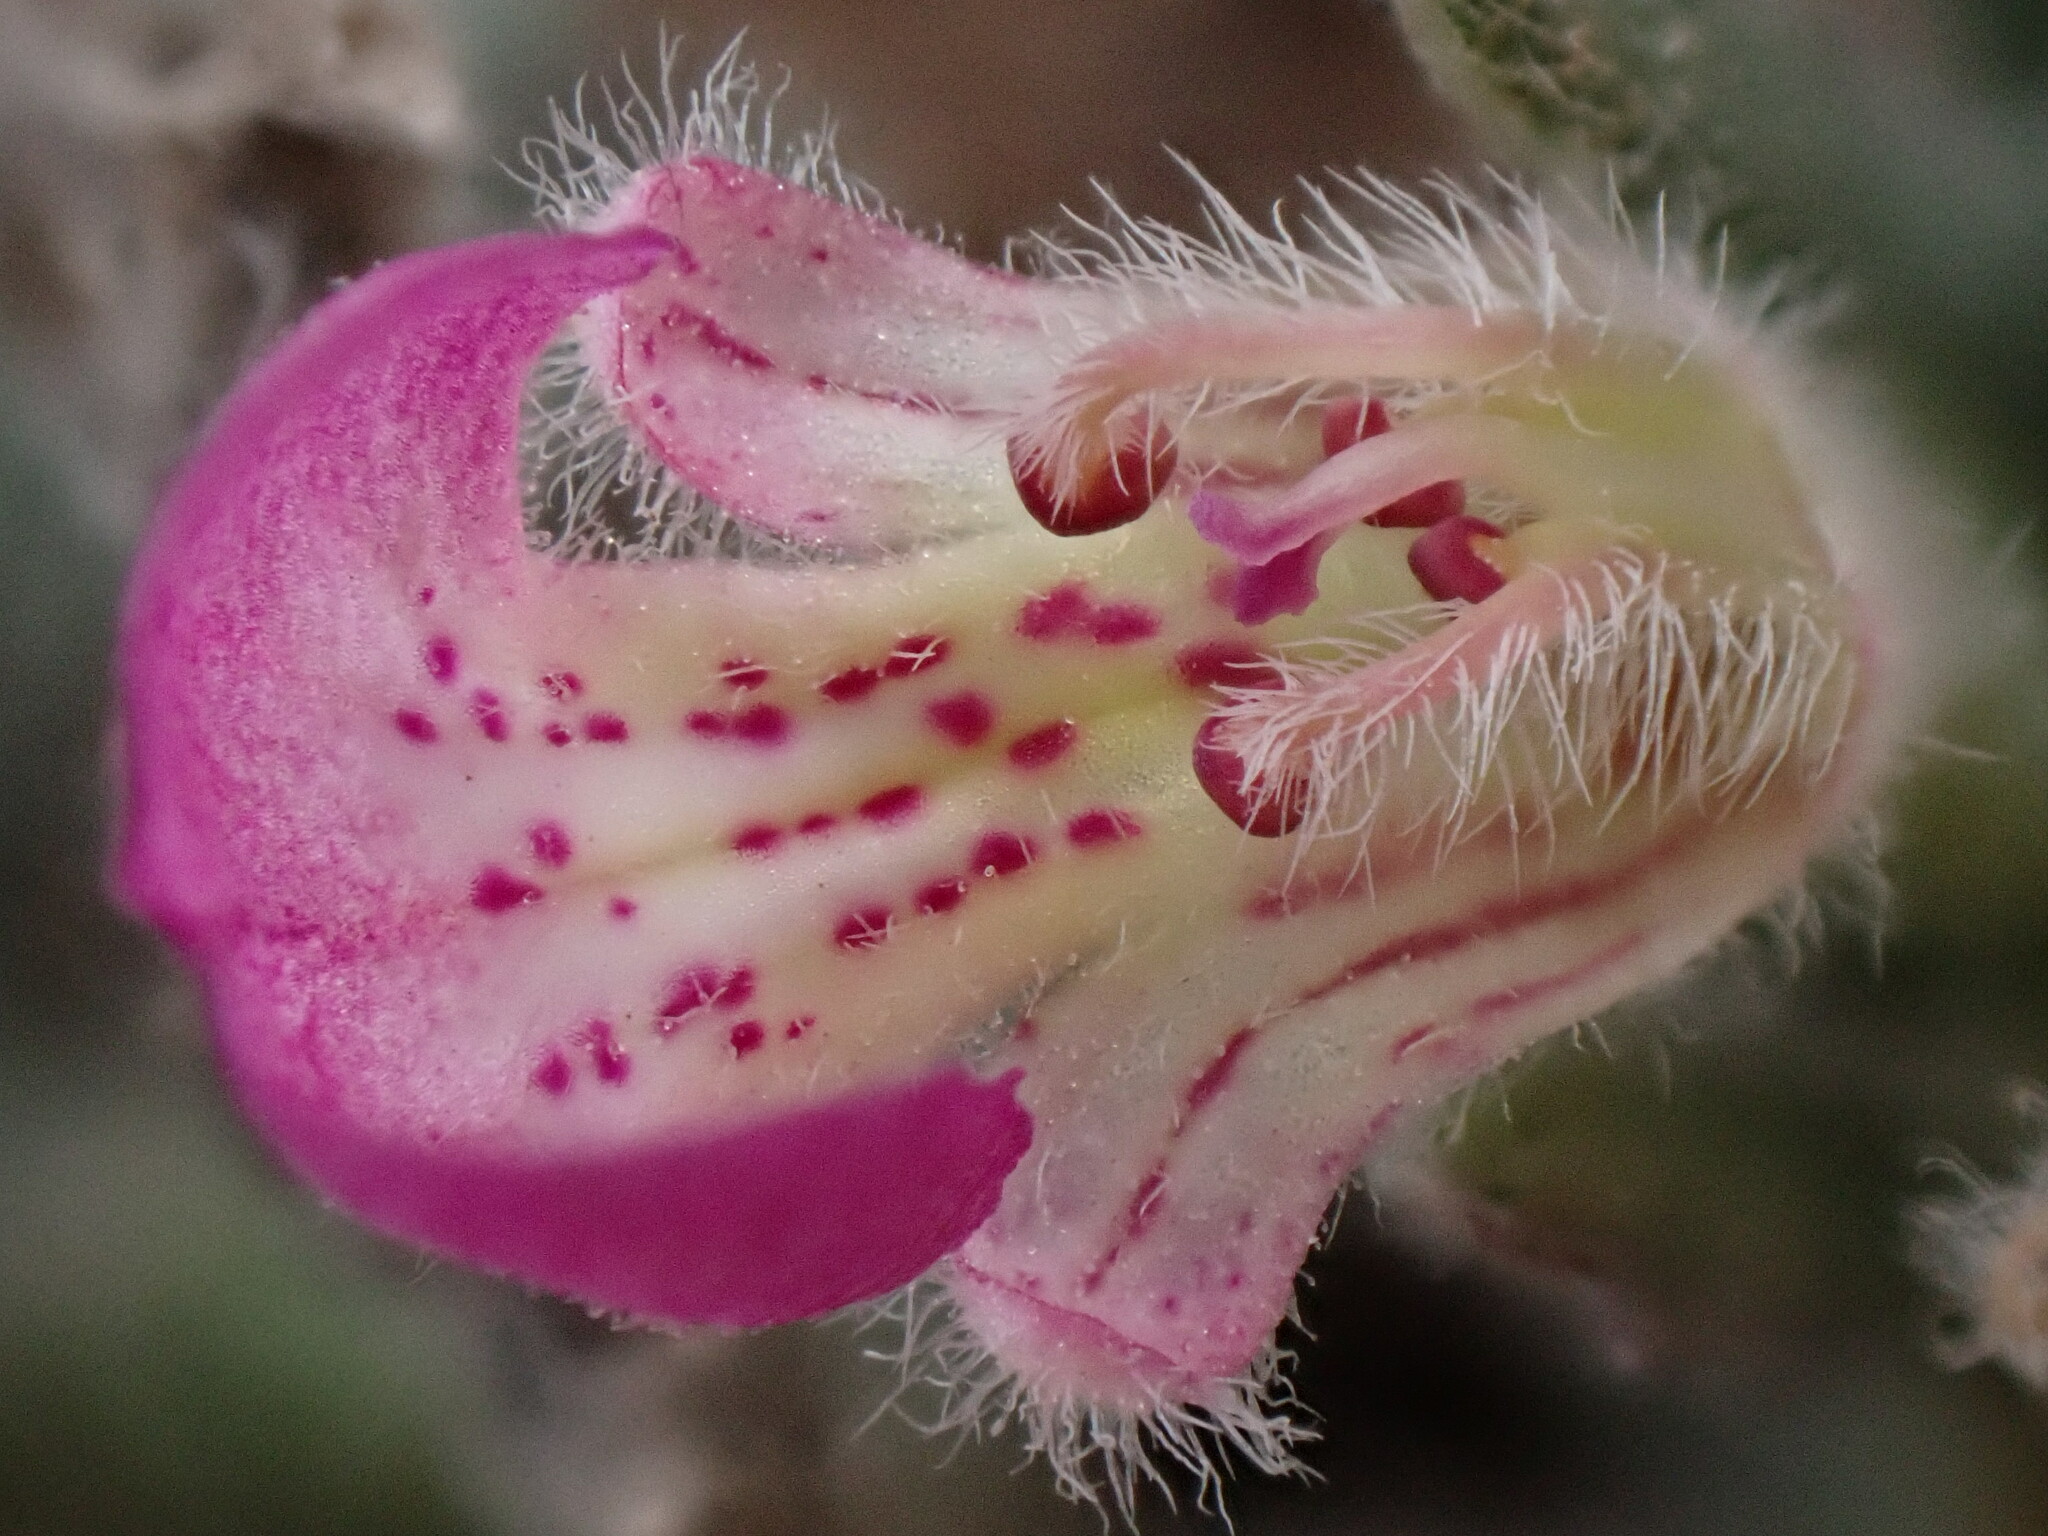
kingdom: Plantae
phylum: Tracheophyta
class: Magnoliopsida
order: Lamiales
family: Lamiaceae
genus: Ajuga
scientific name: Ajuga iva
